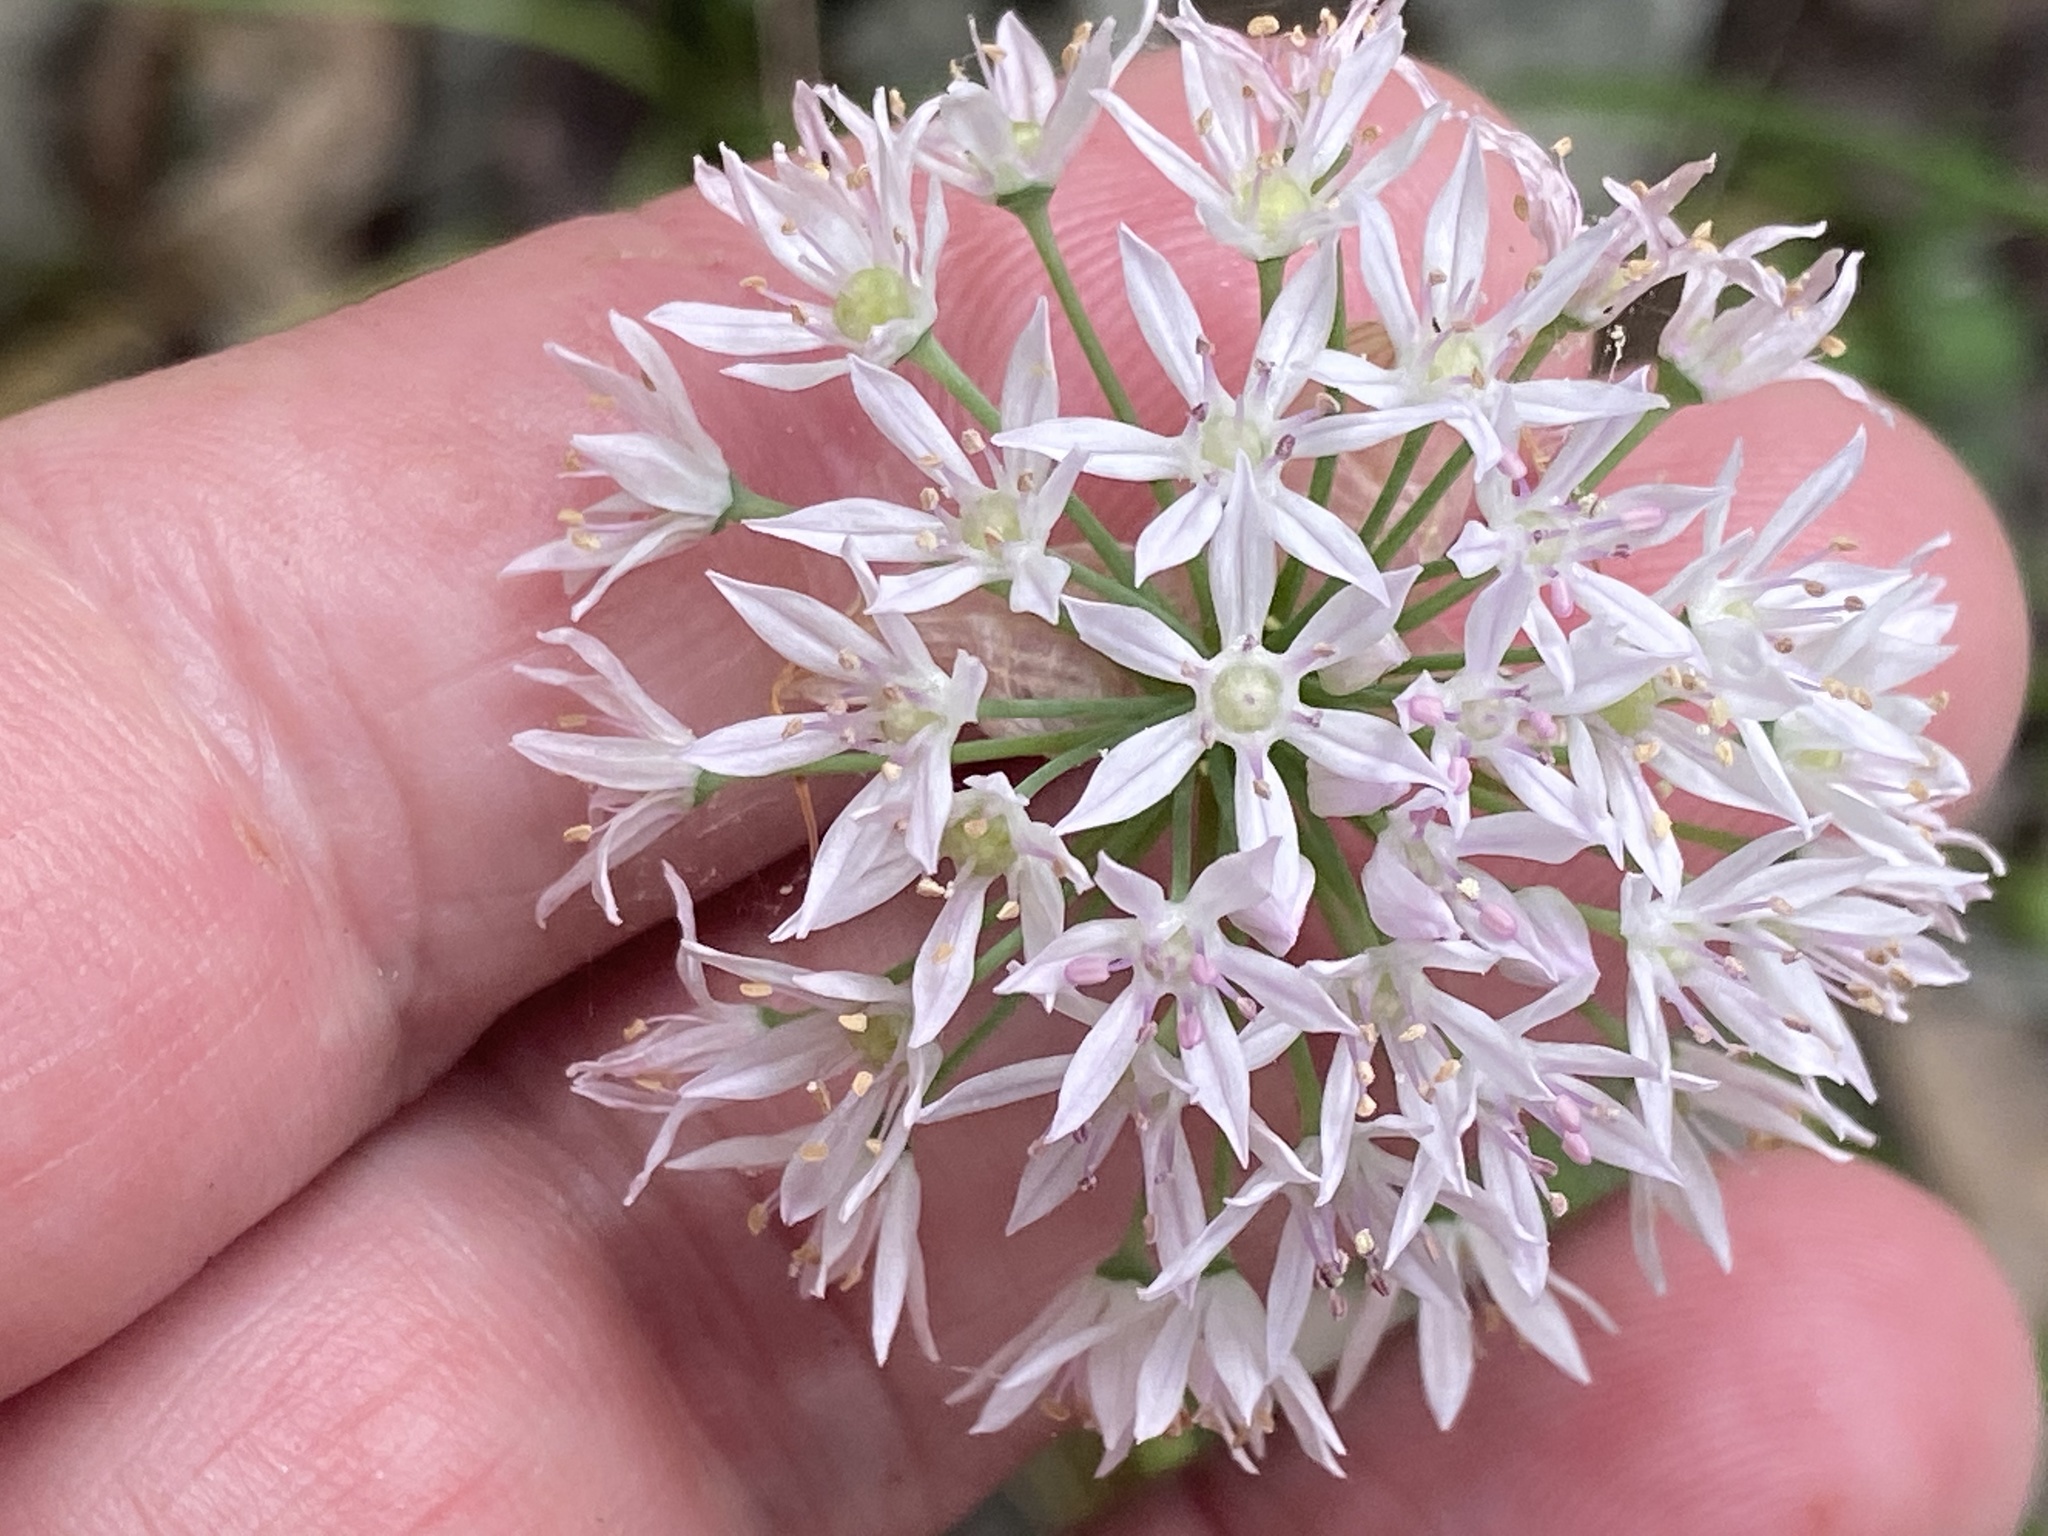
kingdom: Plantae
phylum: Tracheophyta
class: Liliopsida
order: Asparagales
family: Amaryllidaceae
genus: Allium
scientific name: Allium canadense
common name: Meadow garlic
